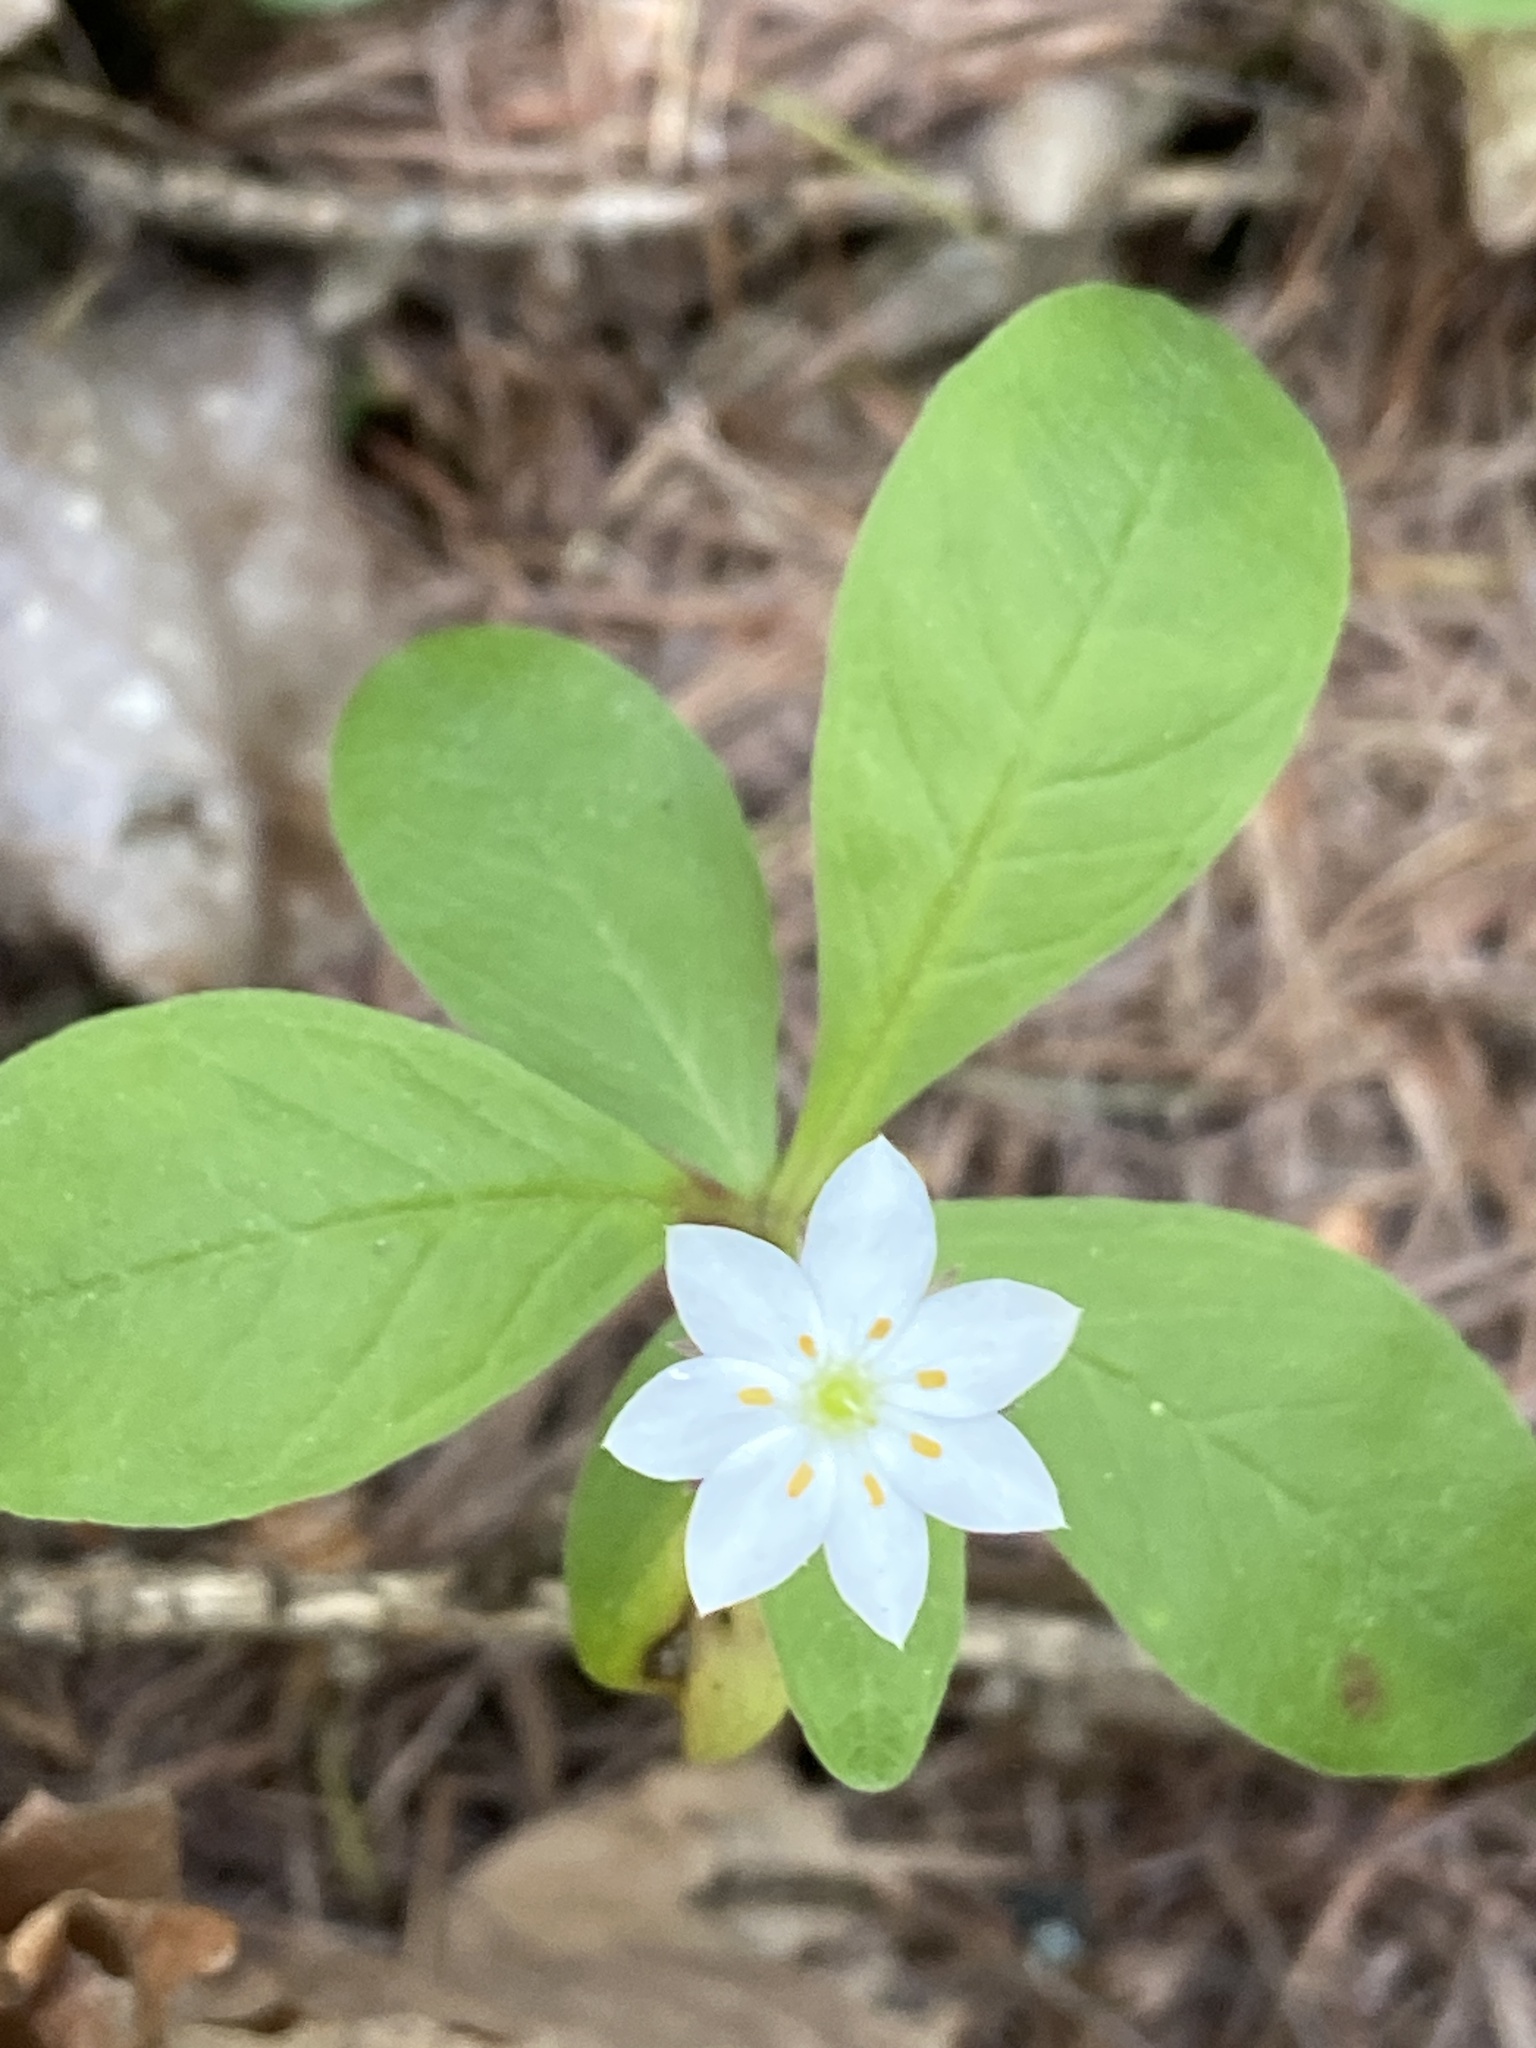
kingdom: Plantae
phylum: Tracheophyta
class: Magnoliopsida
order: Ericales
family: Primulaceae
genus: Lysimachia
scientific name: Lysimachia europaea
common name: Arctic starflower
